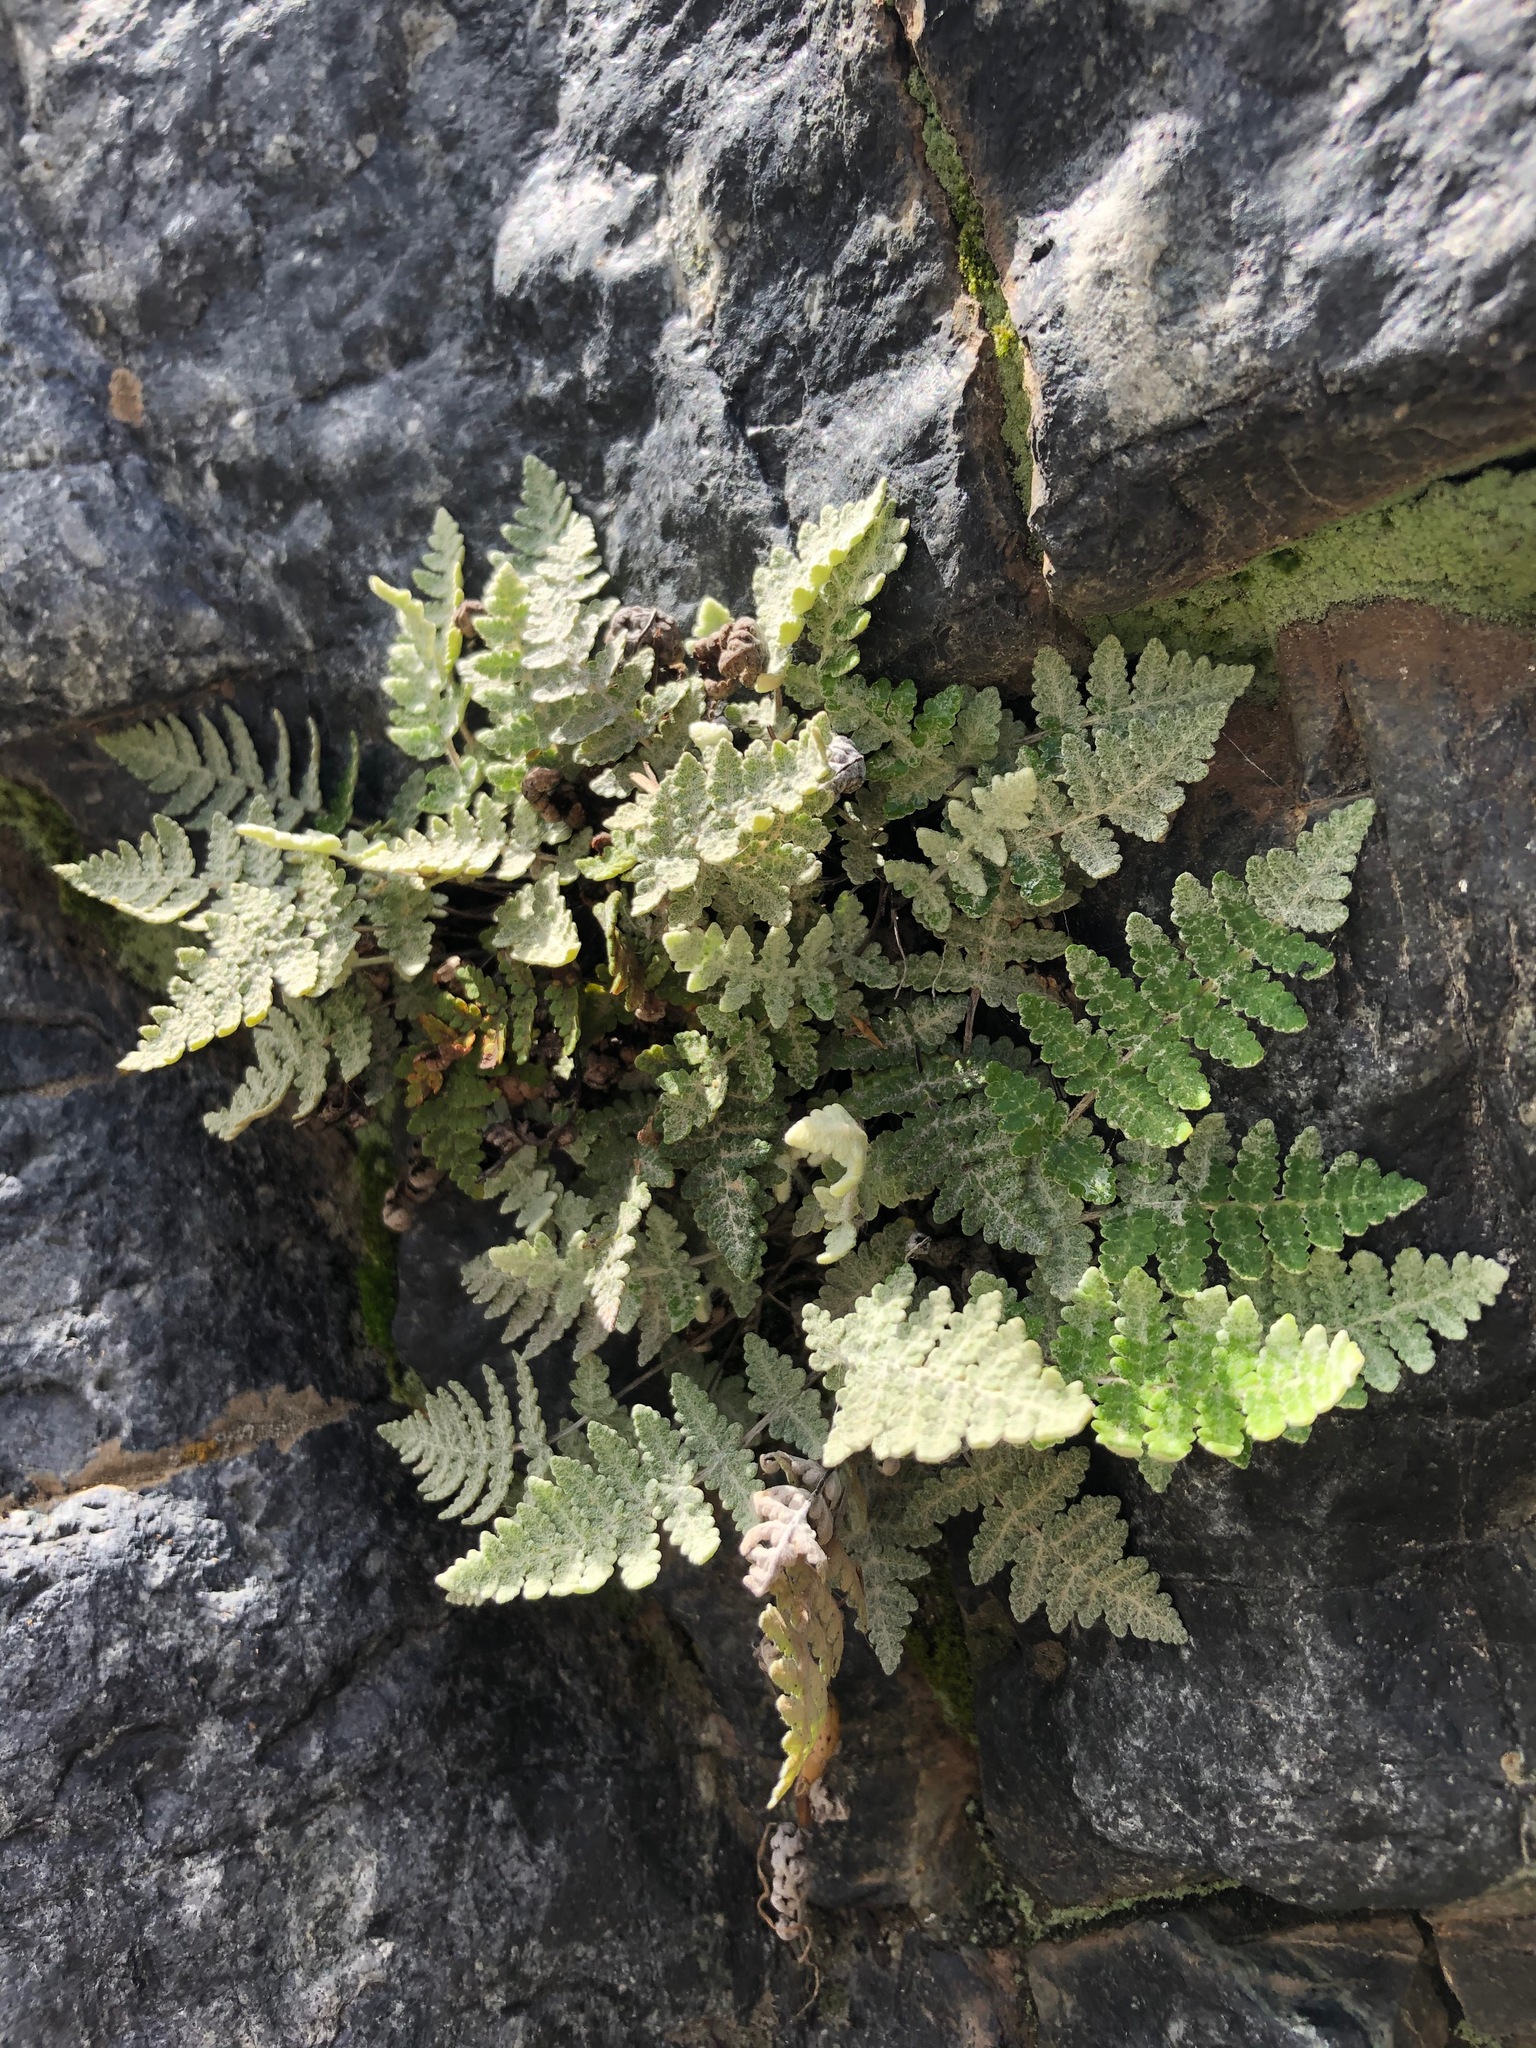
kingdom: Plantae
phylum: Tracheophyta
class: Polypodiopsida
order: Polypodiales
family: Pteridaceae
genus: Myriopteris
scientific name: Myriopteris newberryi
